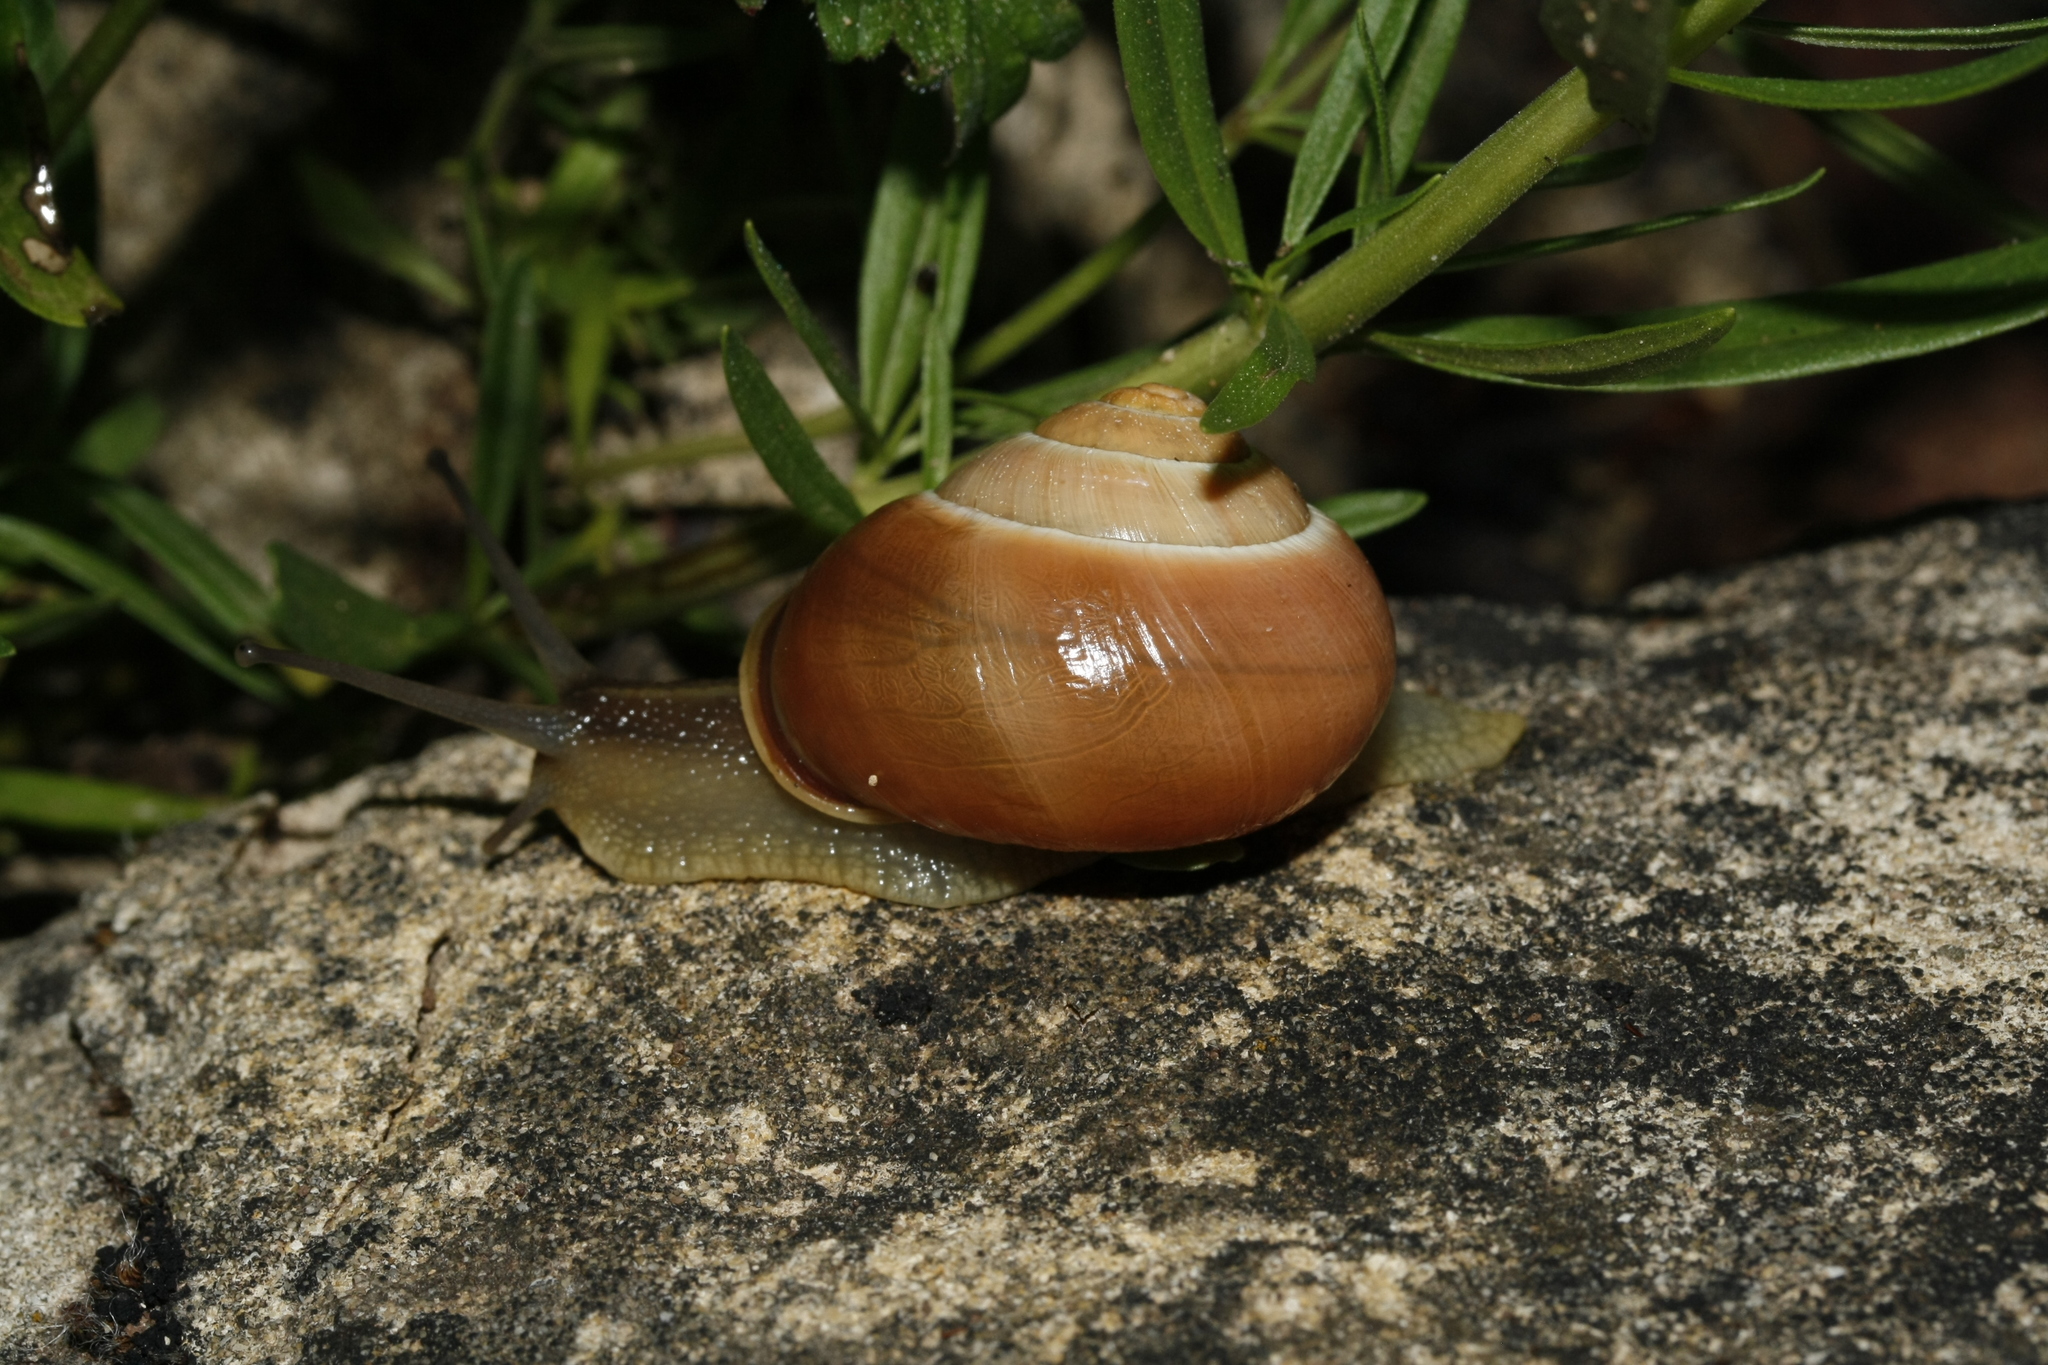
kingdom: Animalia
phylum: Mollusca
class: Gastropoda
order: Stylommatophora
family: Helicidae
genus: Cepaea
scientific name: Cepaea hortensis
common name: White-lip gardensnail
